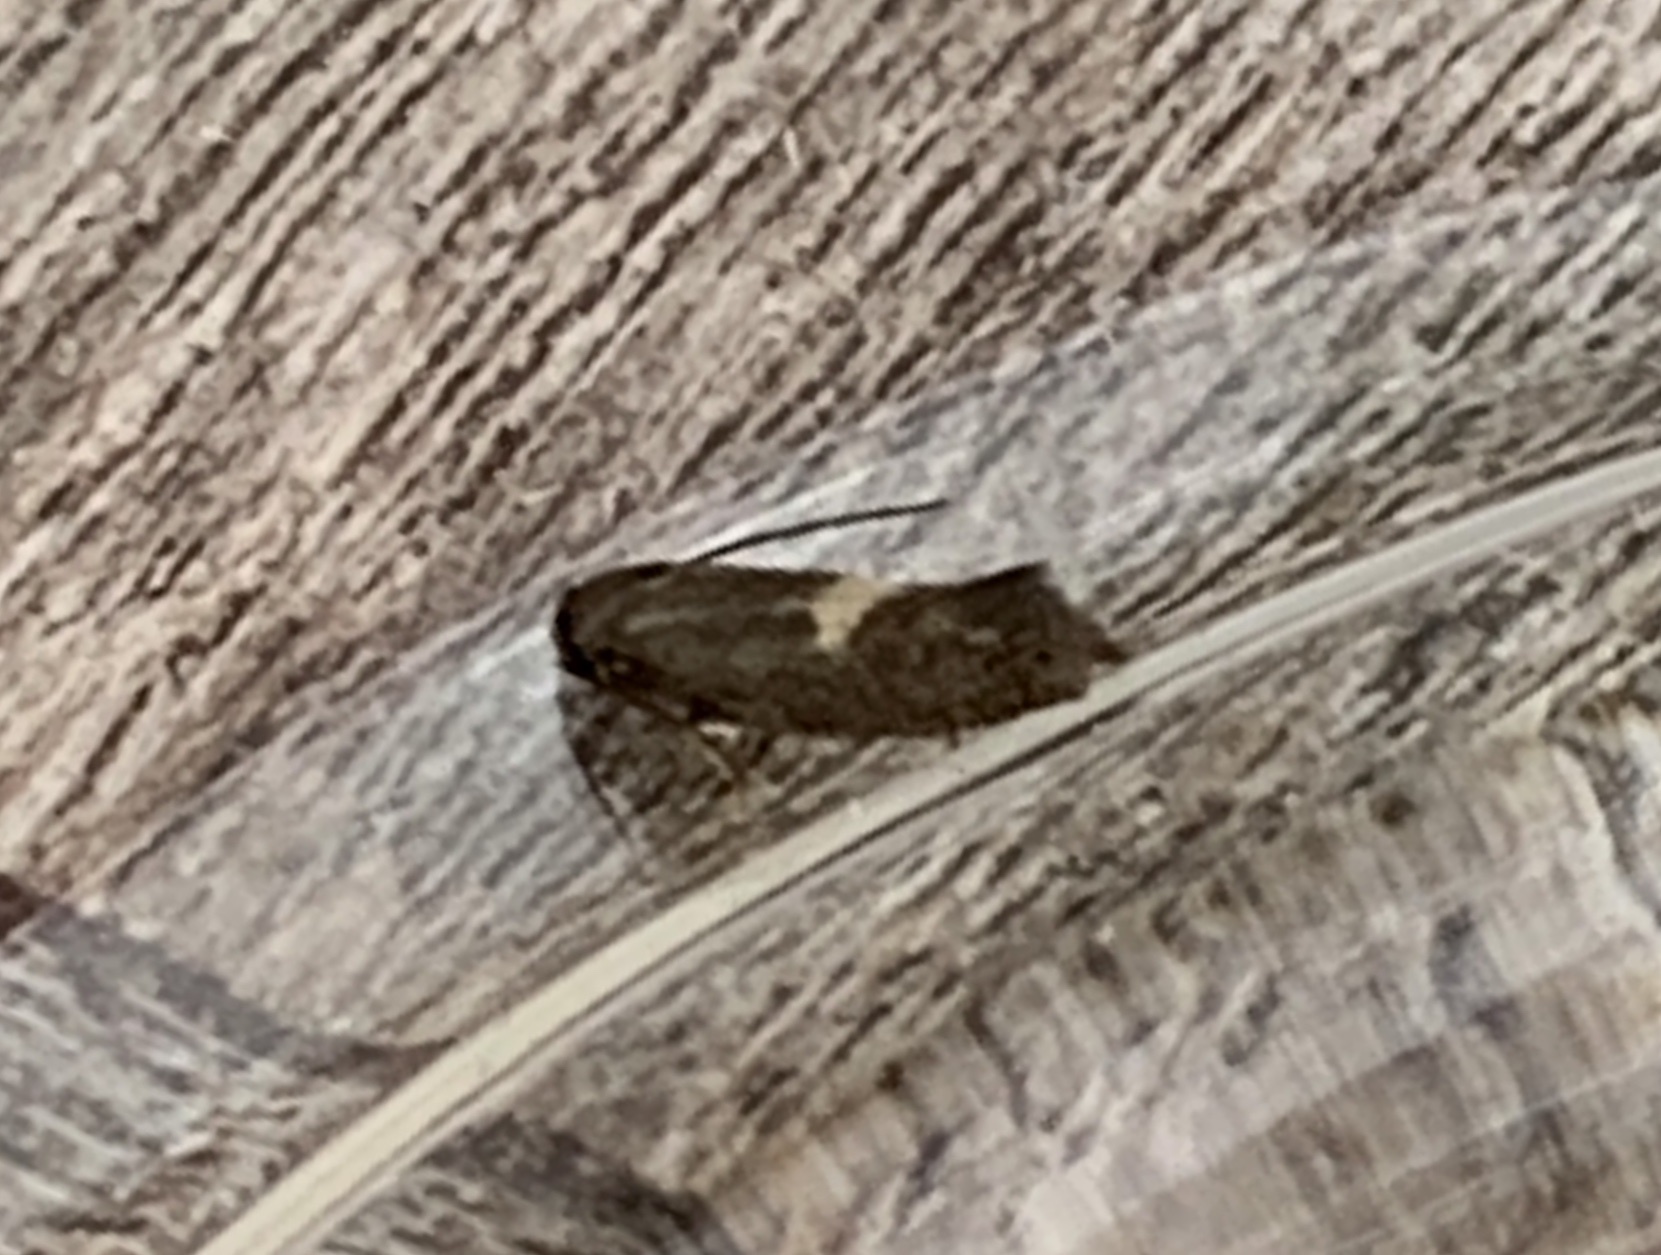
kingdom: Animalia
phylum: Arthropoda
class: Insecta
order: Lepidoptera
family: Elachistidae
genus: Perittia
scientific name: Perittia herrichiella
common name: Moth
